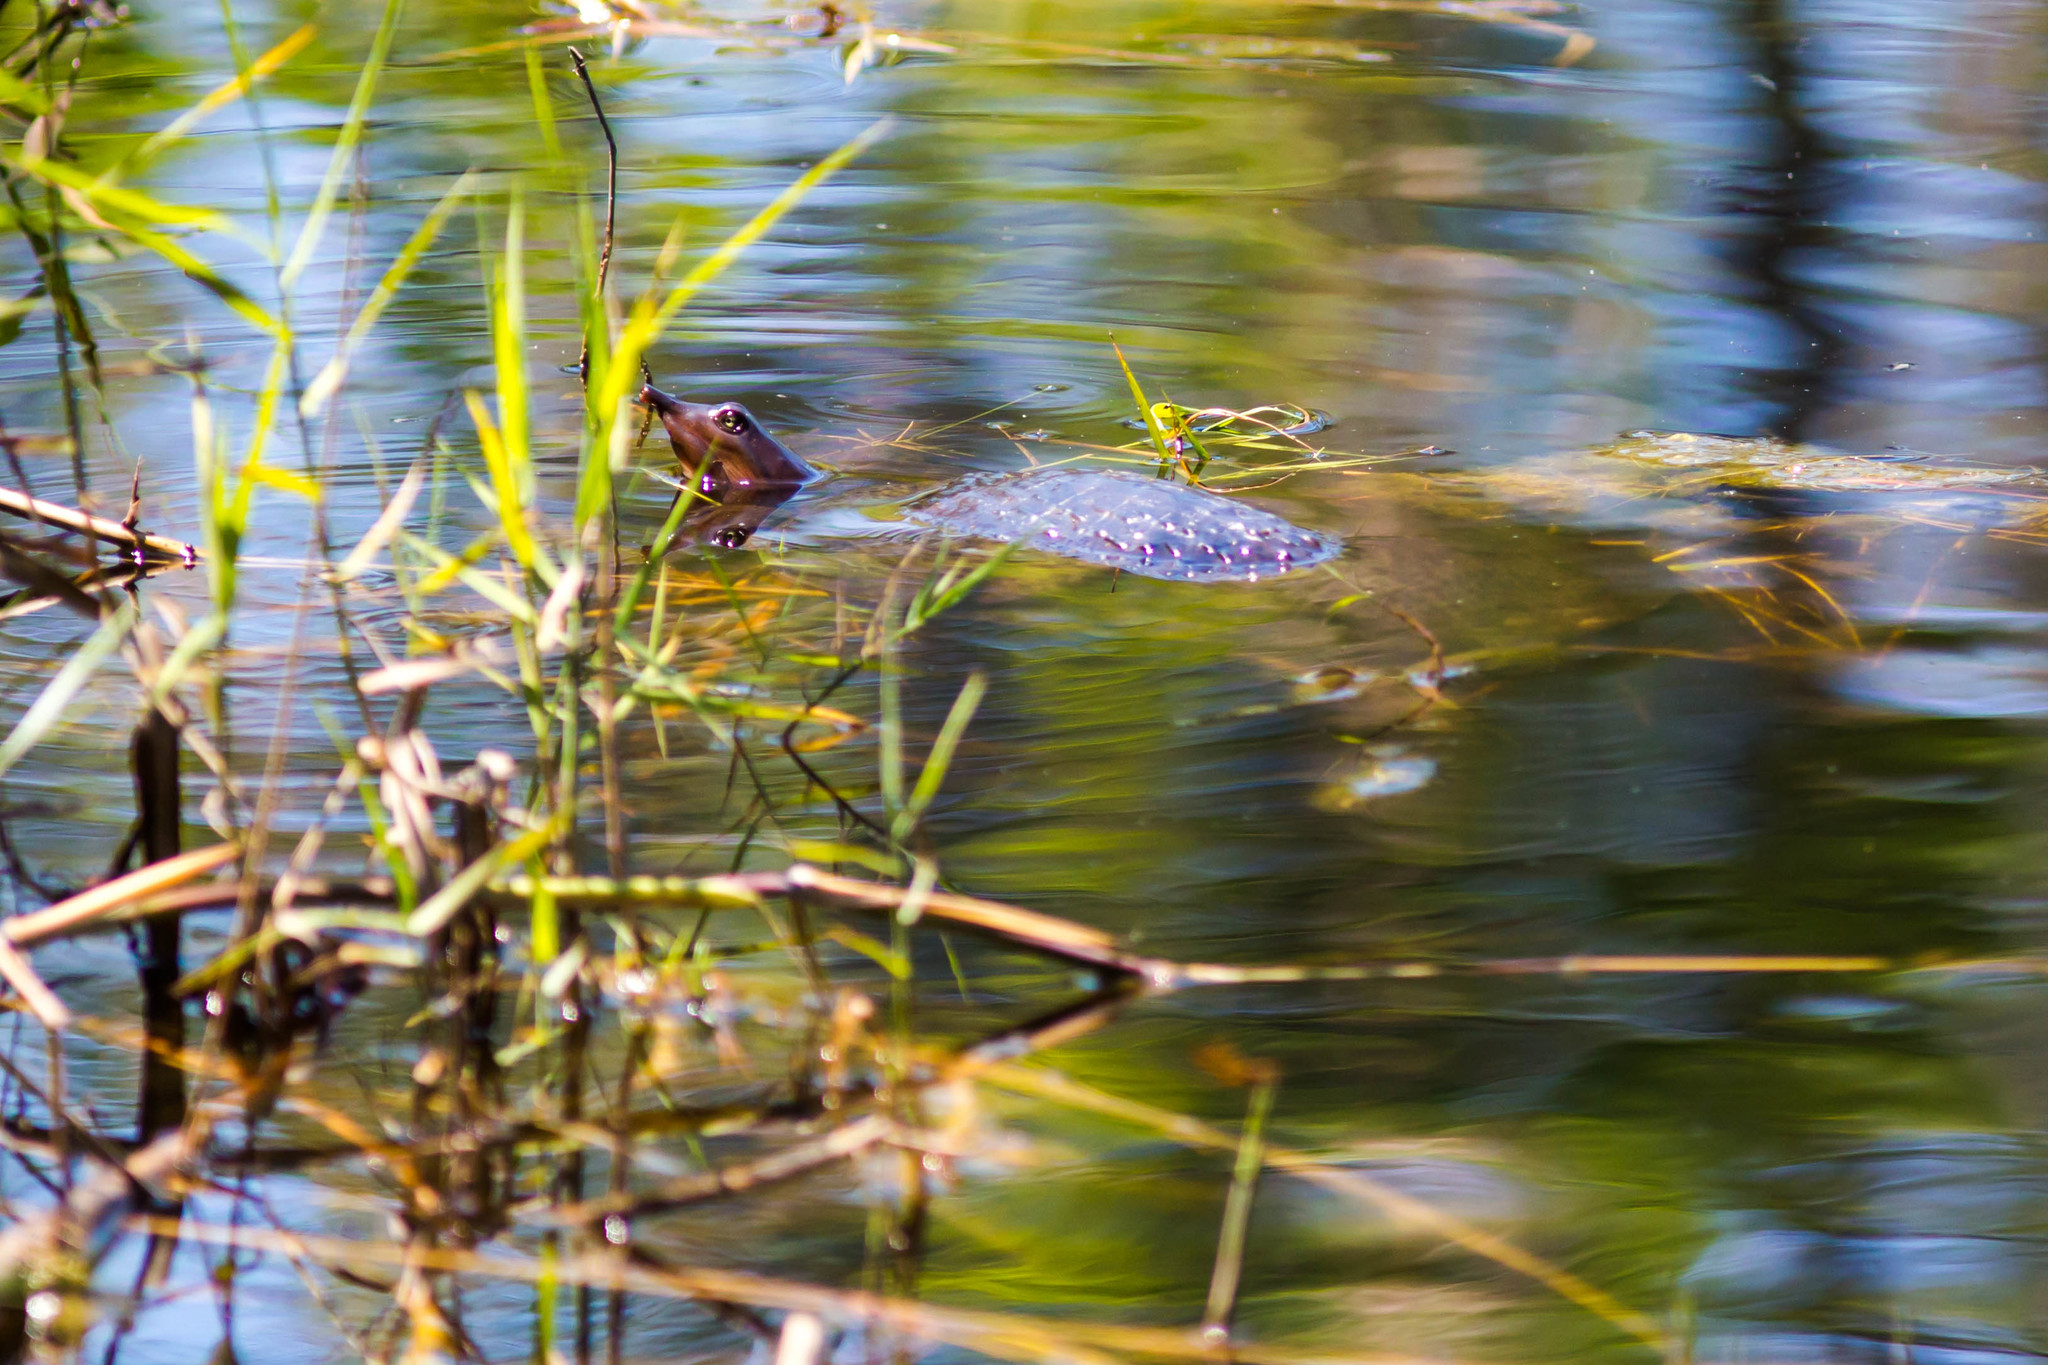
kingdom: Animalia
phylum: Chordata
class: Testudines
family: Trionychidae
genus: Apalone
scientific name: Apalone ferox
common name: Florida softshell turtle
